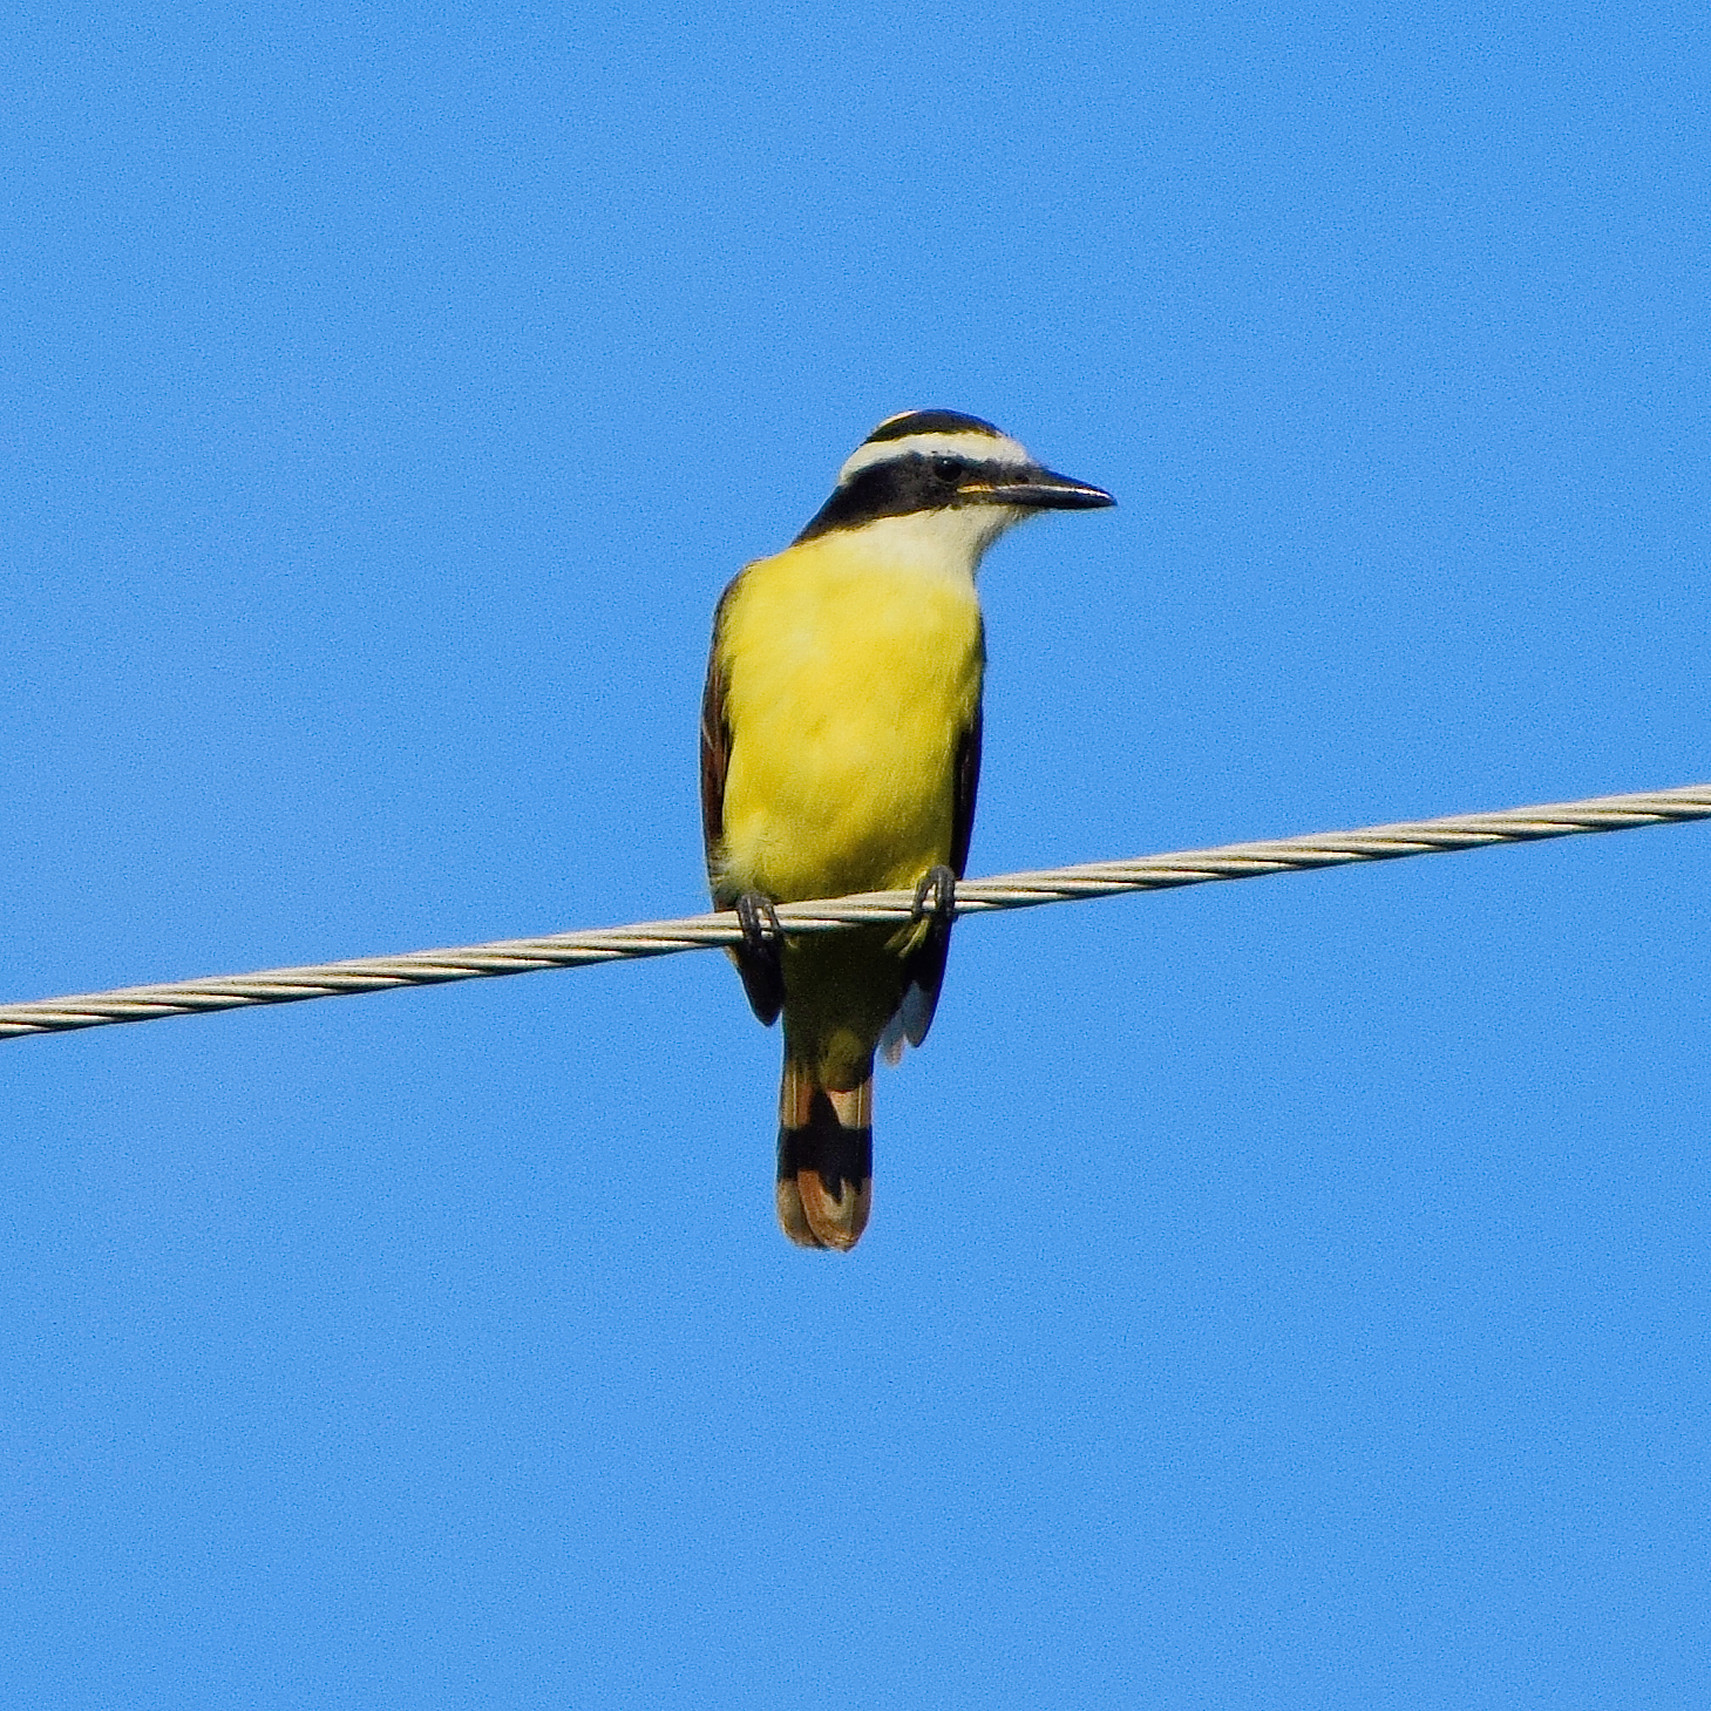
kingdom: Animalia
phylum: Chordata
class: Aves
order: Passeriformes
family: Tyrannidae
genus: Pitangus
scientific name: Pitangus sulphuratus
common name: Great kiskadee
